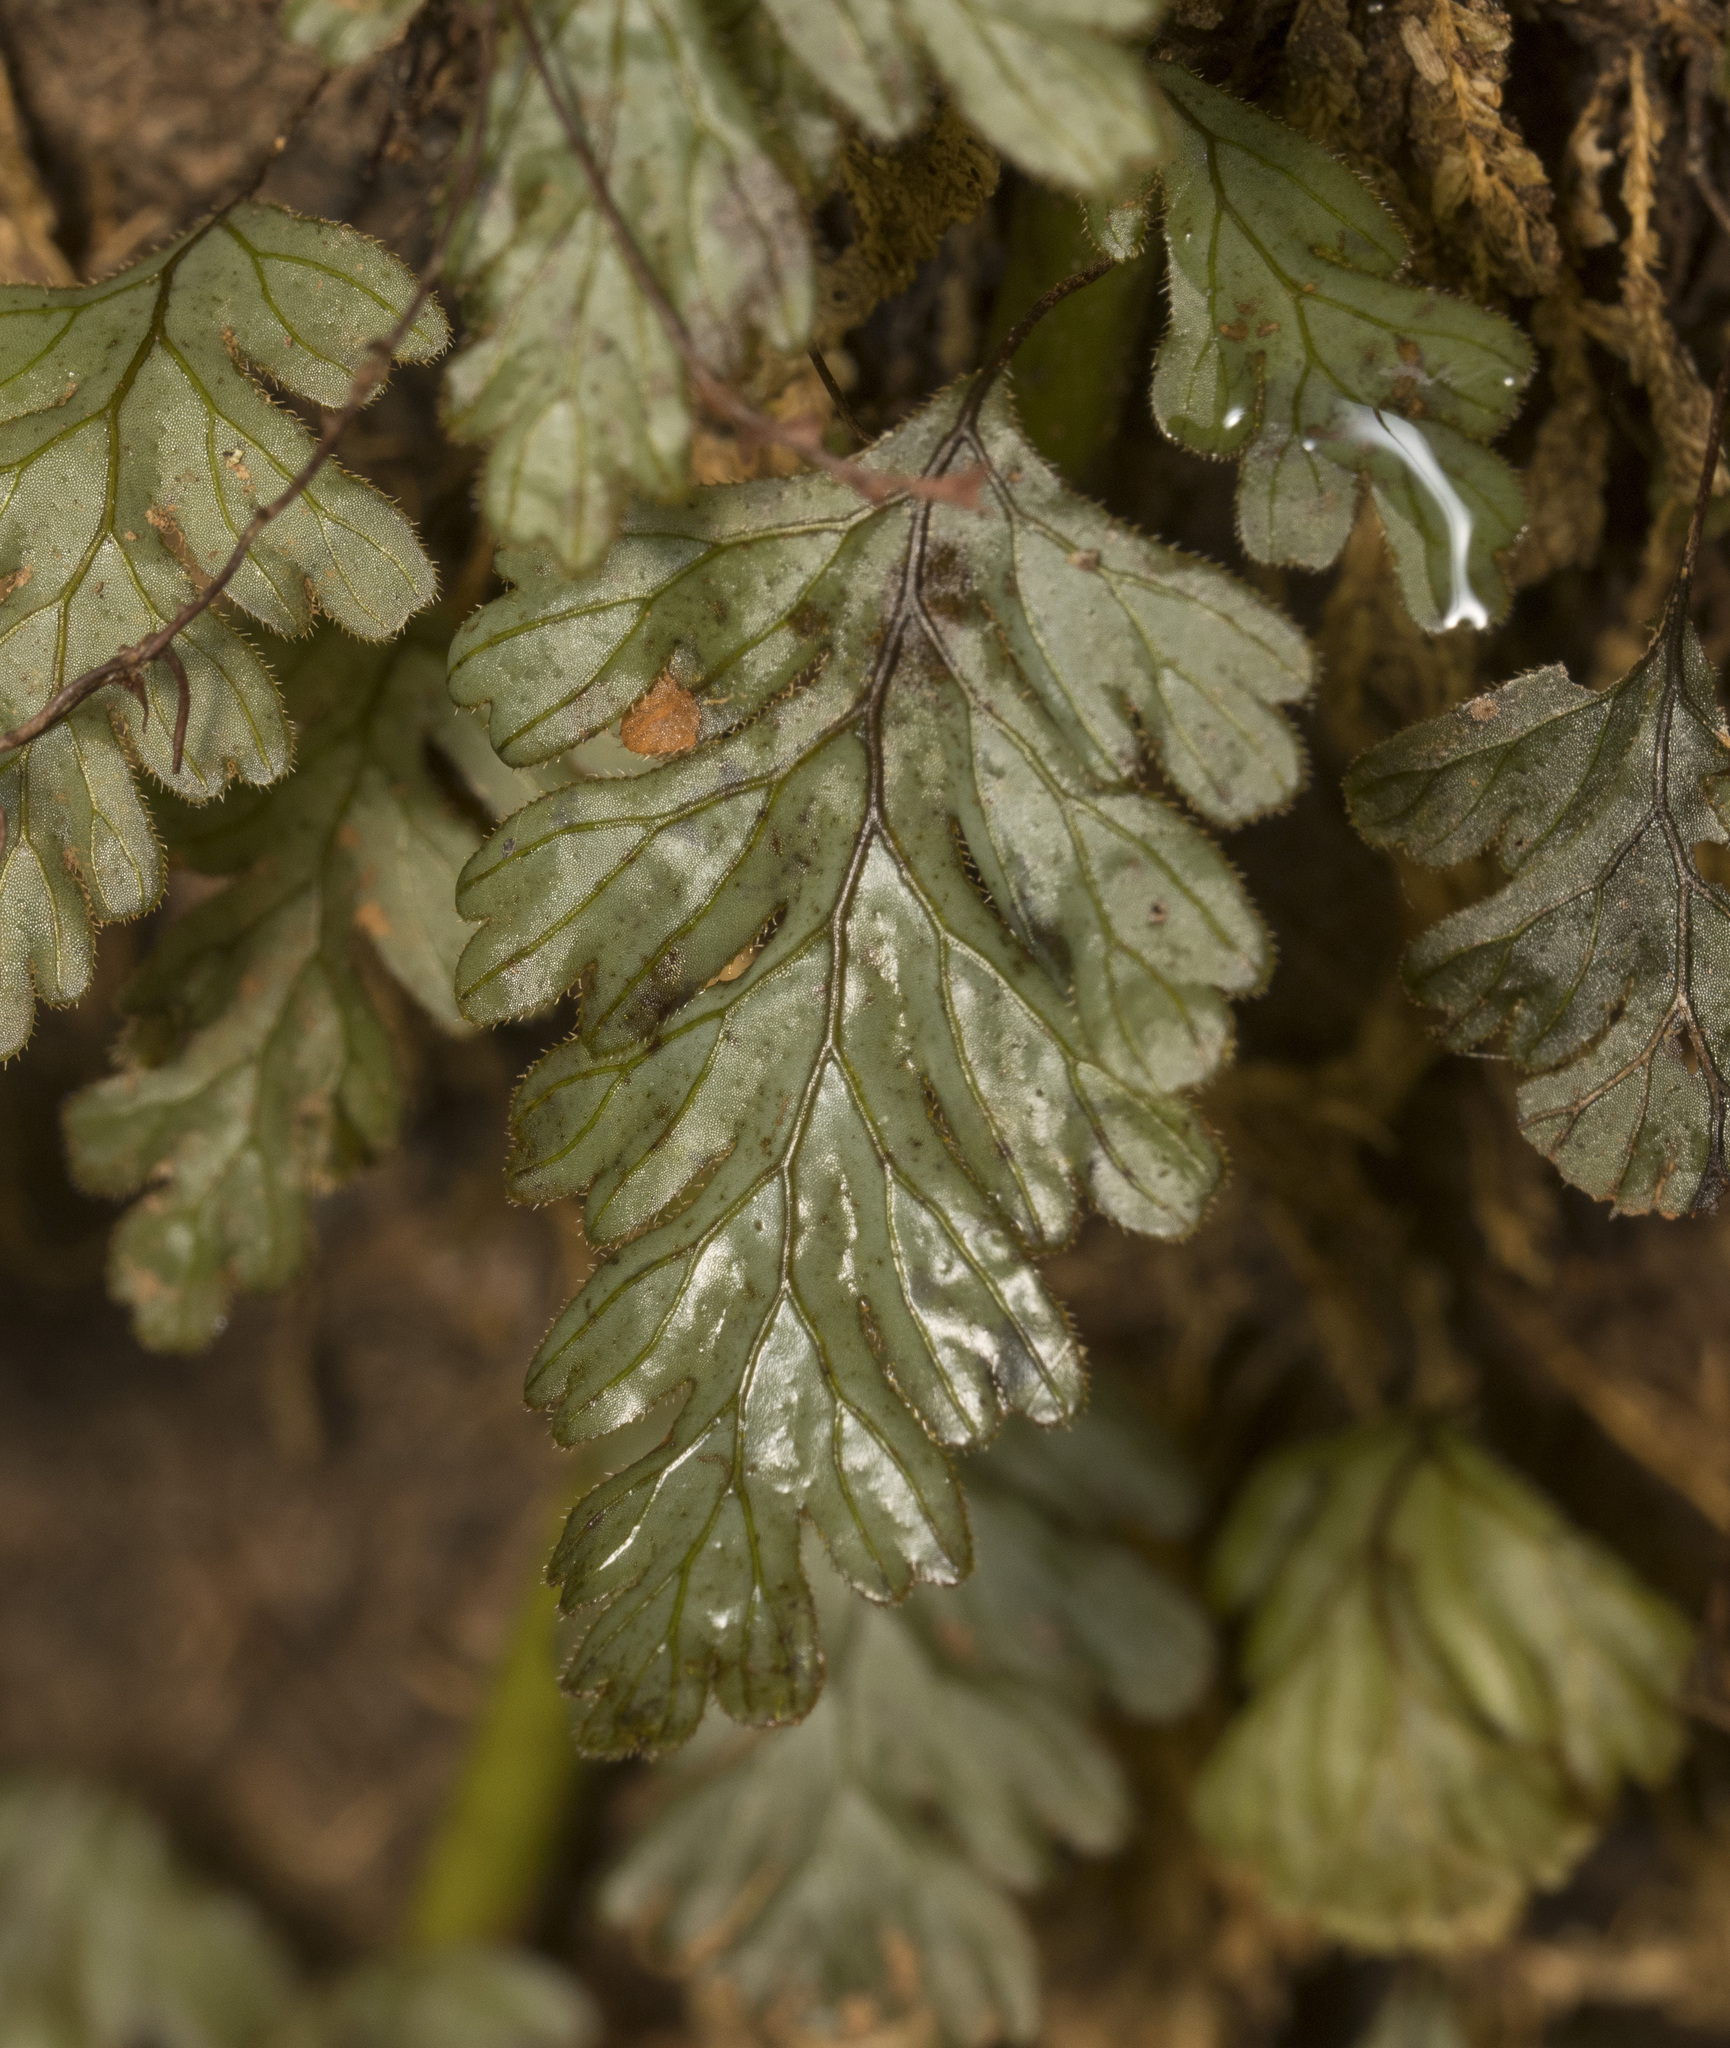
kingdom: Plantae
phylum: Tracheophyta
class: Polypodiopsida
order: Hymenophyllales
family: Hymenophyllaceae
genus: Hymenophyllum
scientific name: Hymenophyllum dicranotrichum
